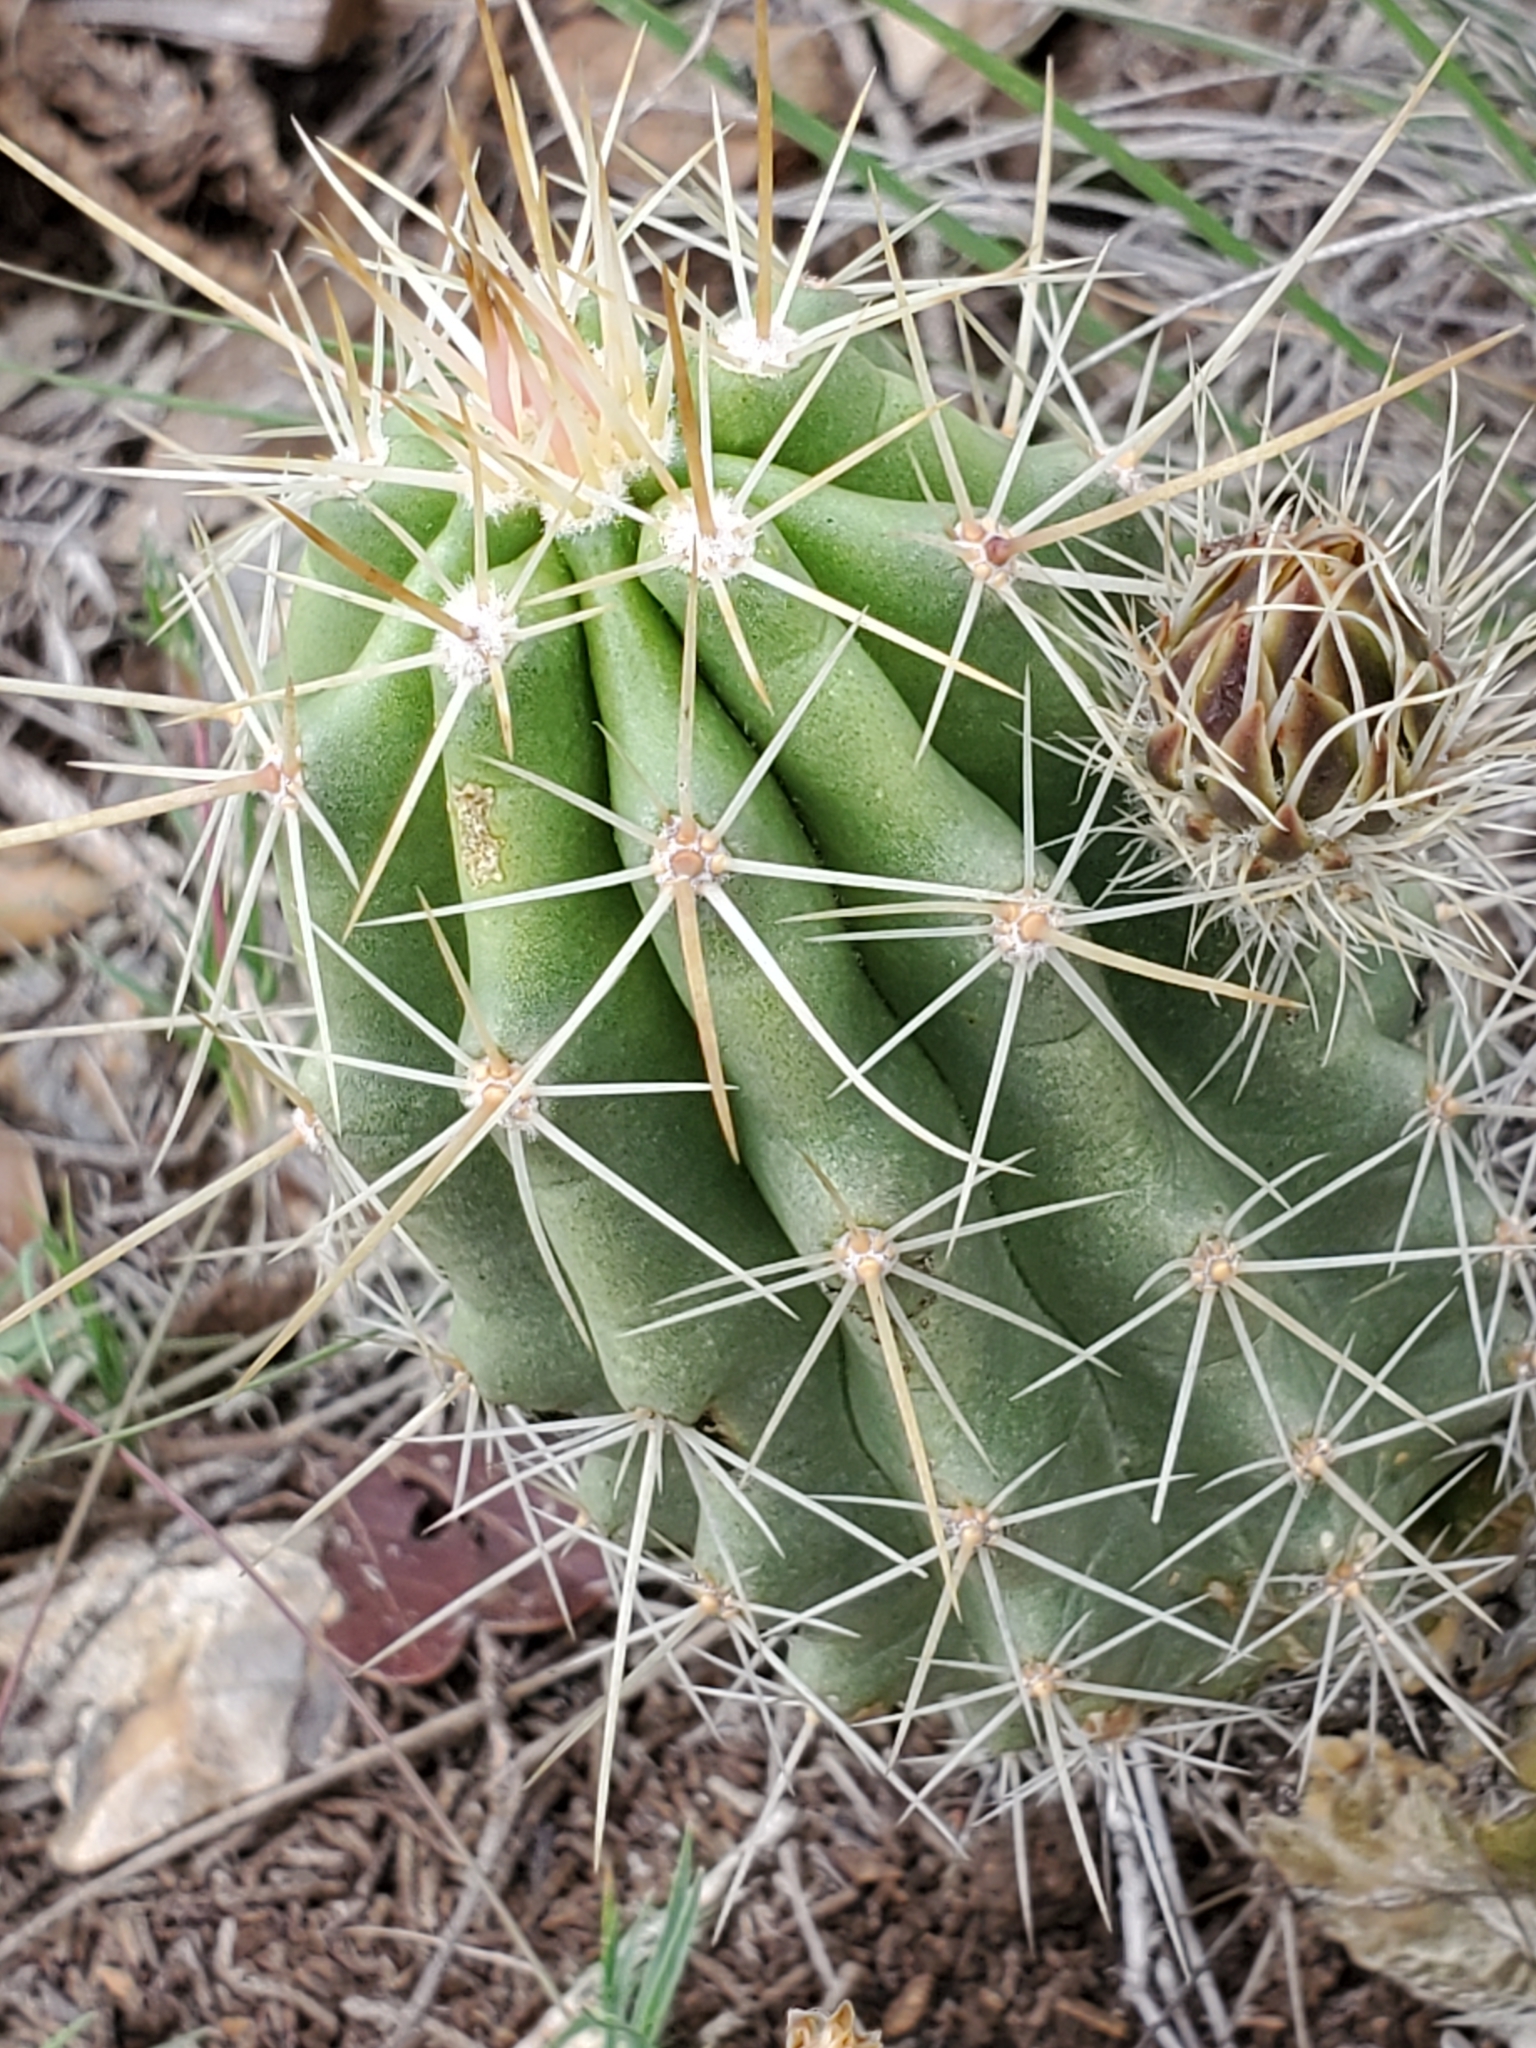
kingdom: Plantae
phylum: Tracheophyta
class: Magnoliopsida
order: Caryophyllales
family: Cactaceae
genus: Echinocereus
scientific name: Echinocereus enneacanthus
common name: Pitaya
